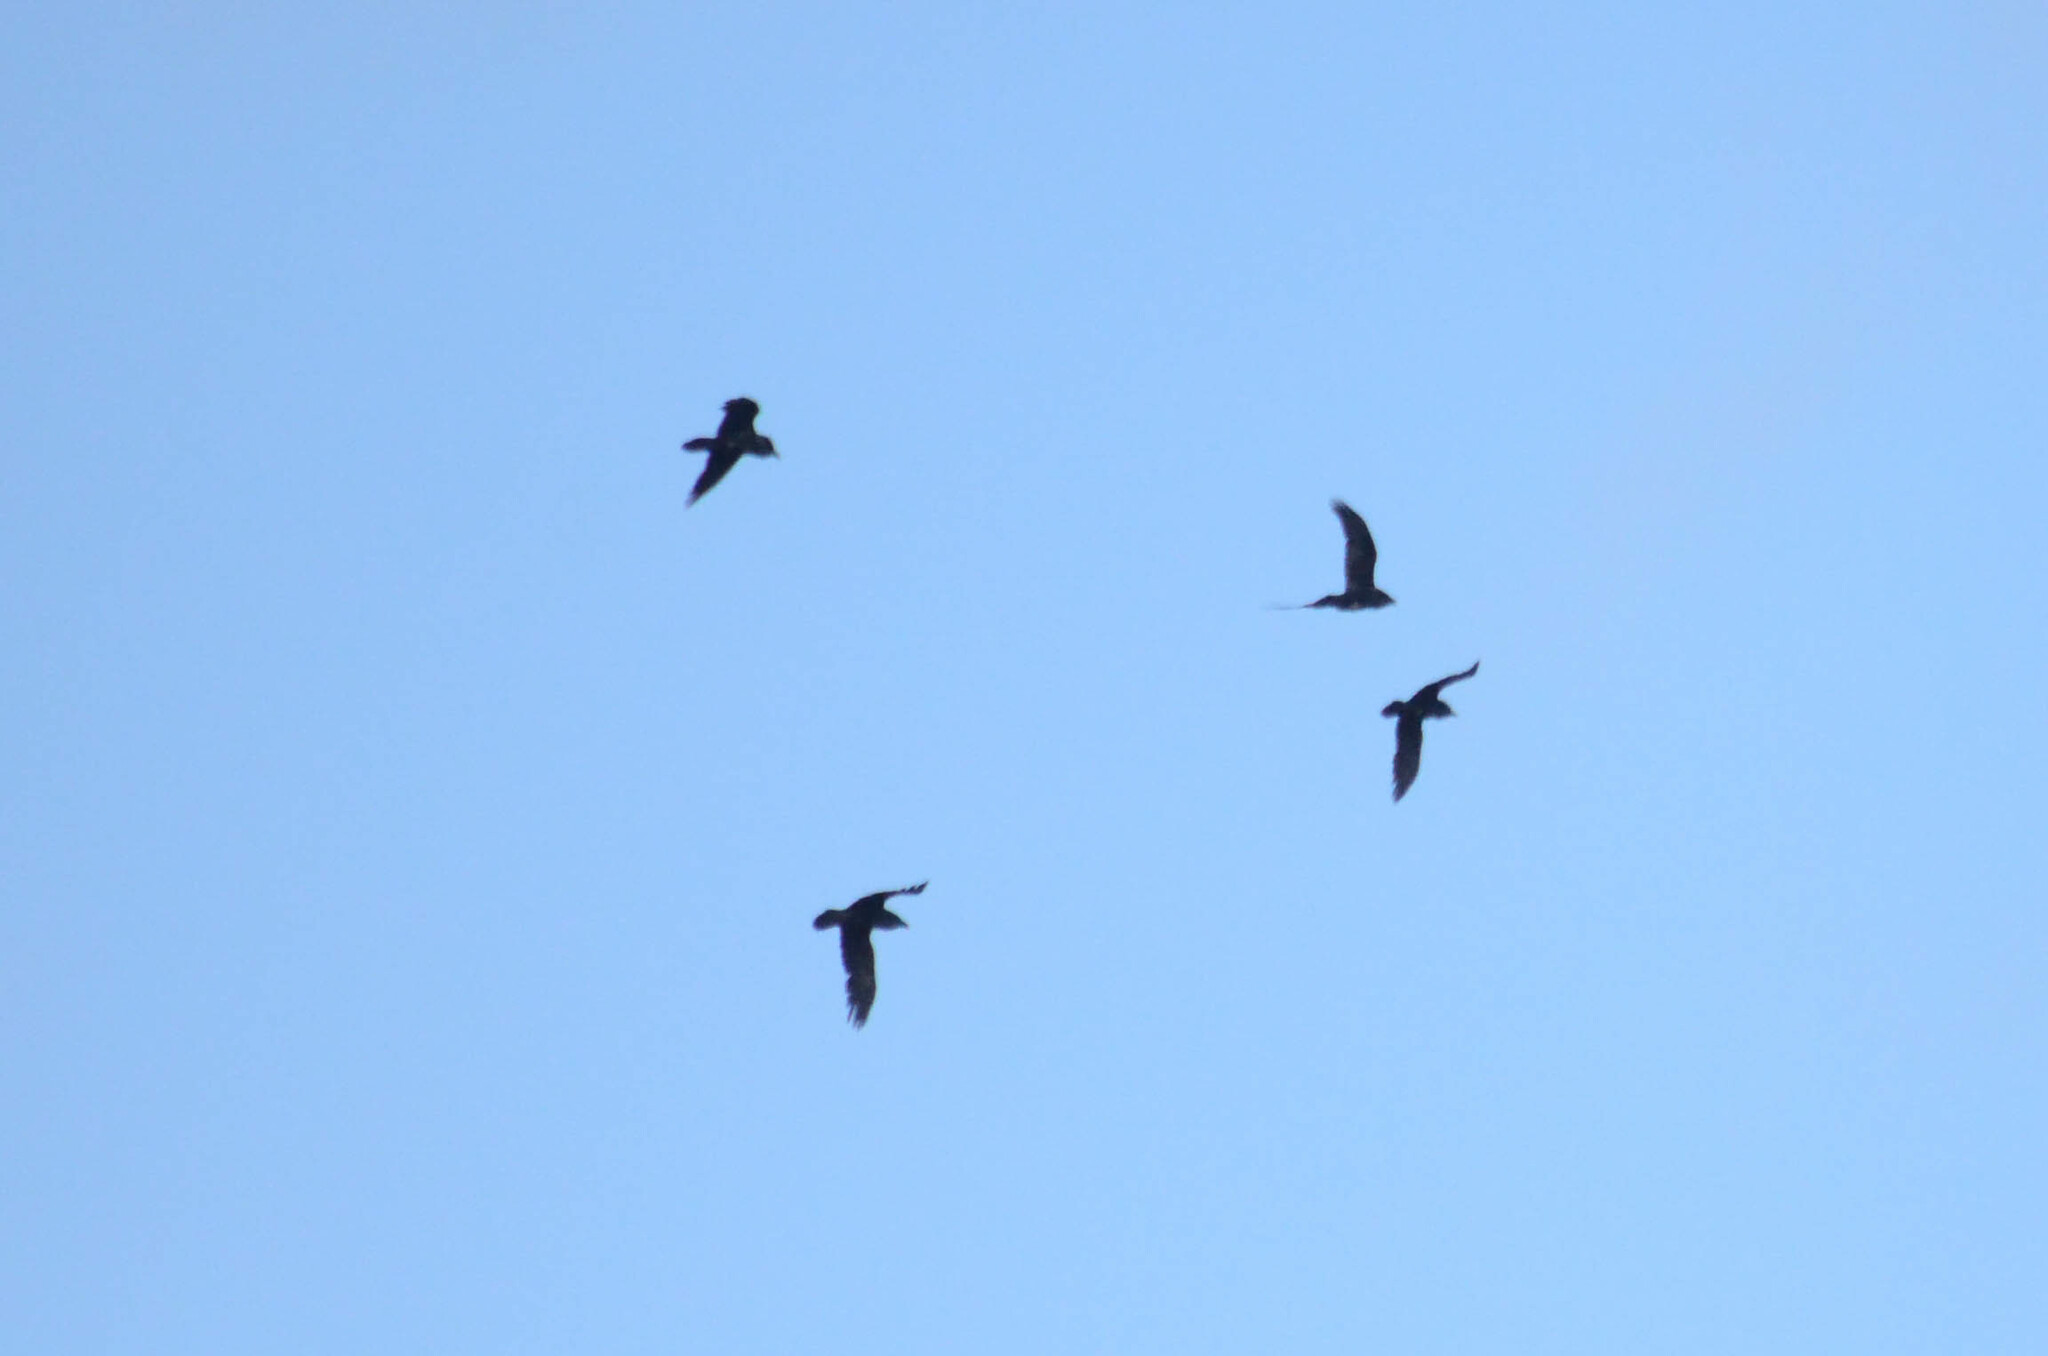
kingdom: Animalia
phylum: Chordata
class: Aves
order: Passeriformes
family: Corvidae
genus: Corvus
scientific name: Corvus corax
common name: Common raven
